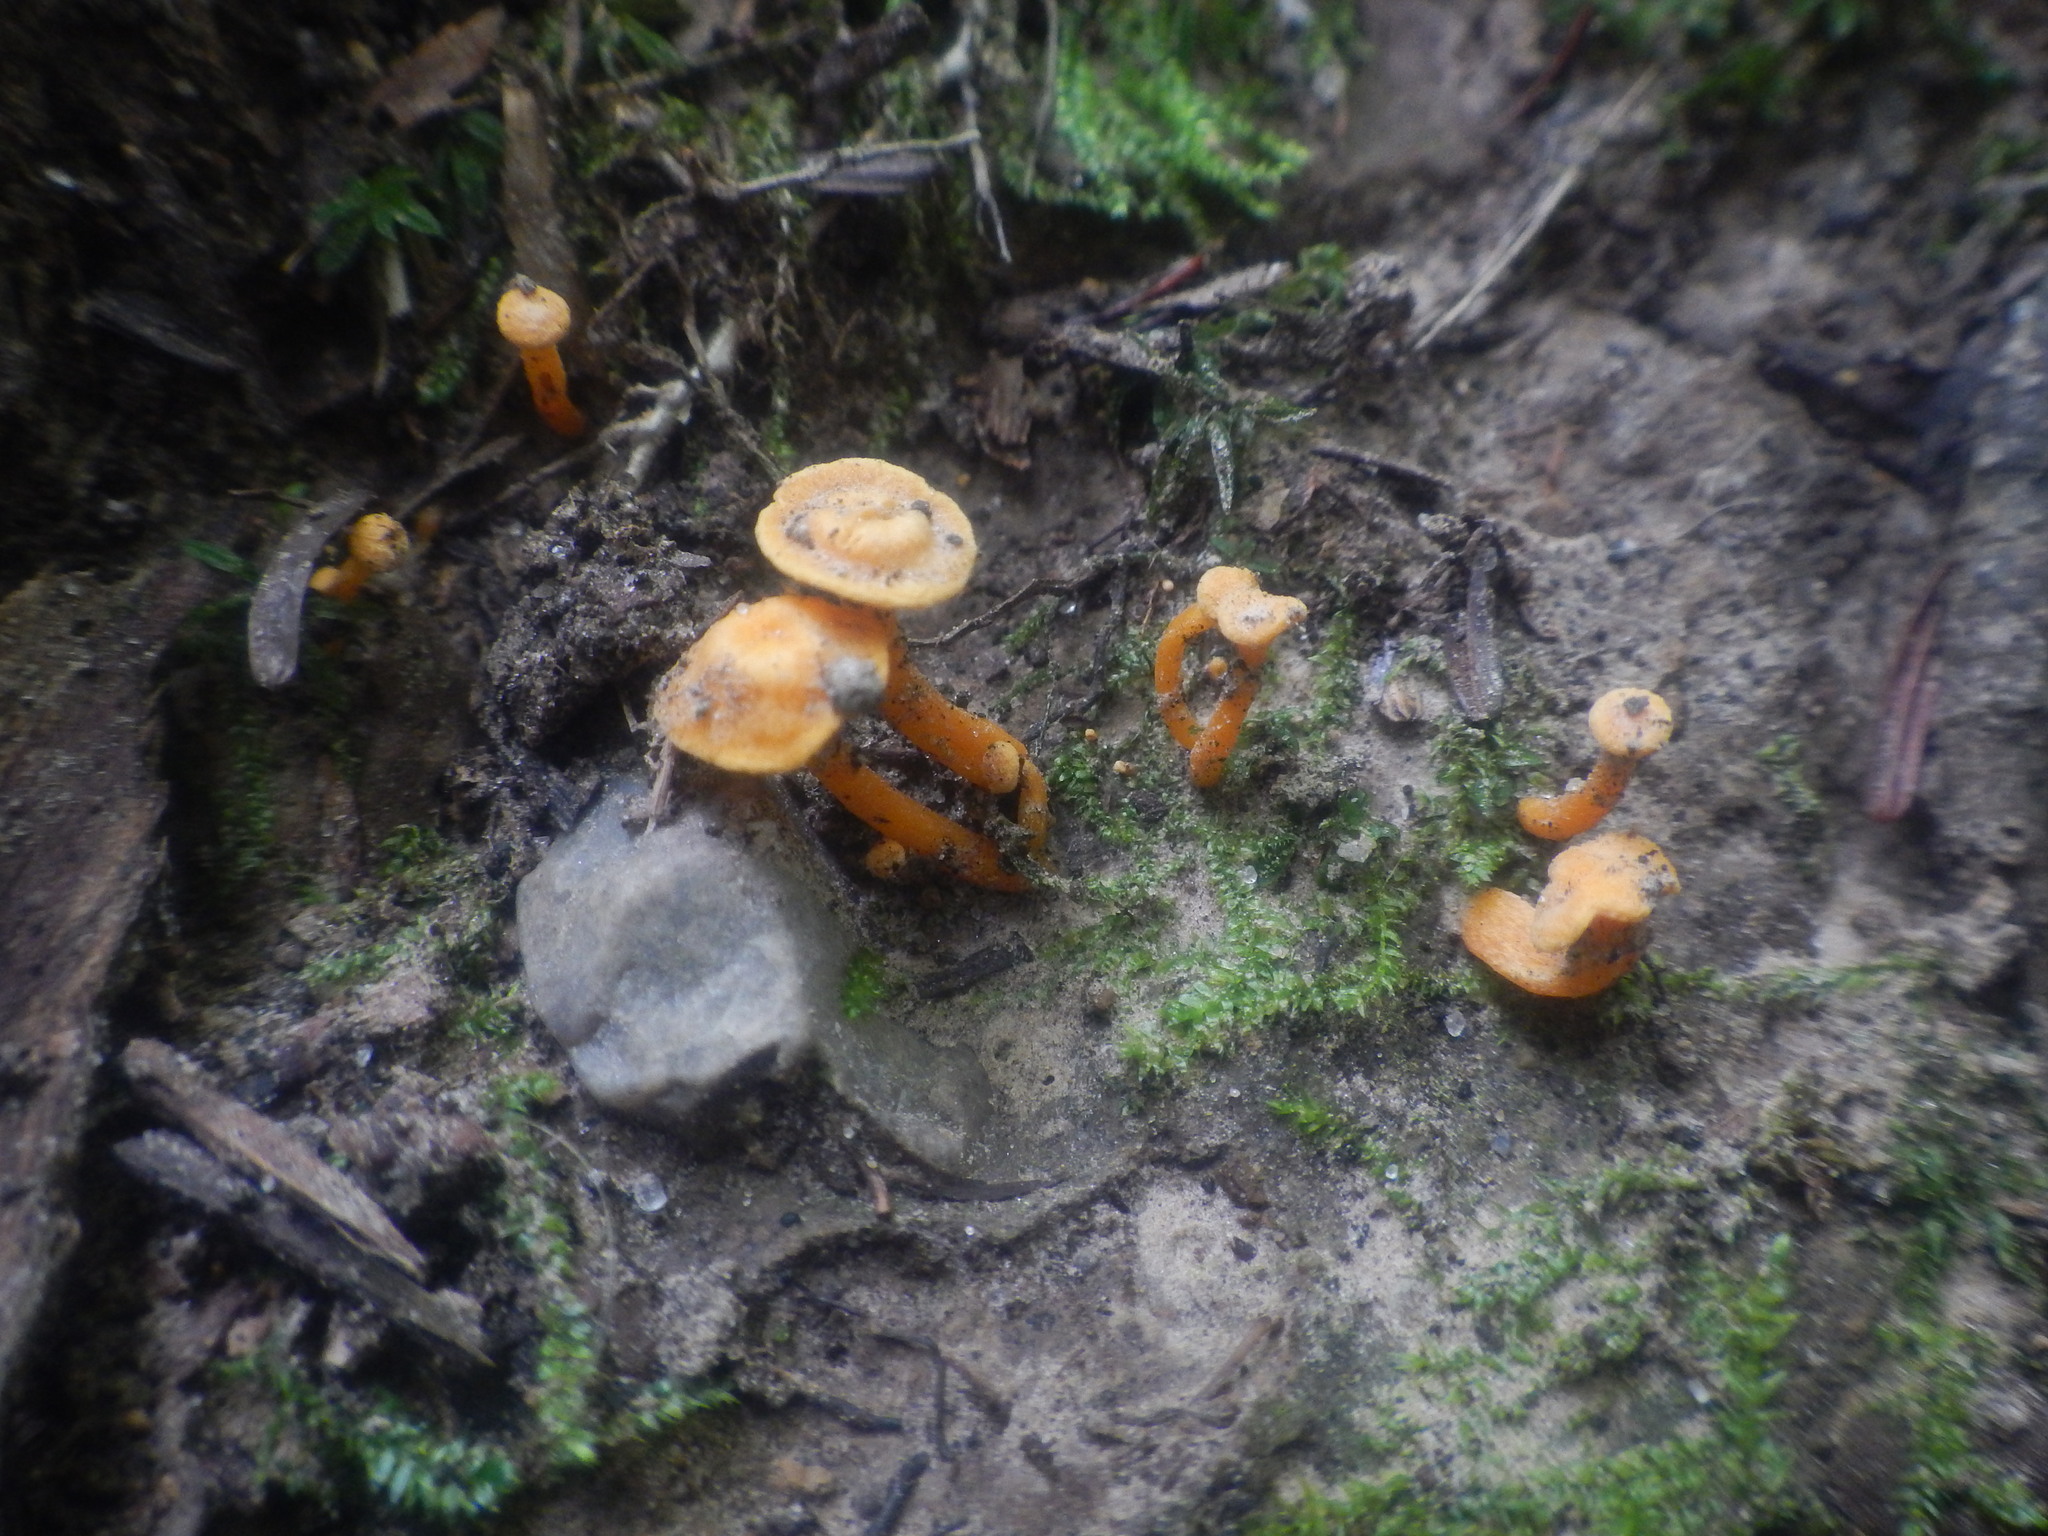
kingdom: Fungi
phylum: Basidiomycota
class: Agaricomycetes
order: Cantharellales
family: Hydnaceae
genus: Cantharellus
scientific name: Cantharellus minor
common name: Small chanterelle
